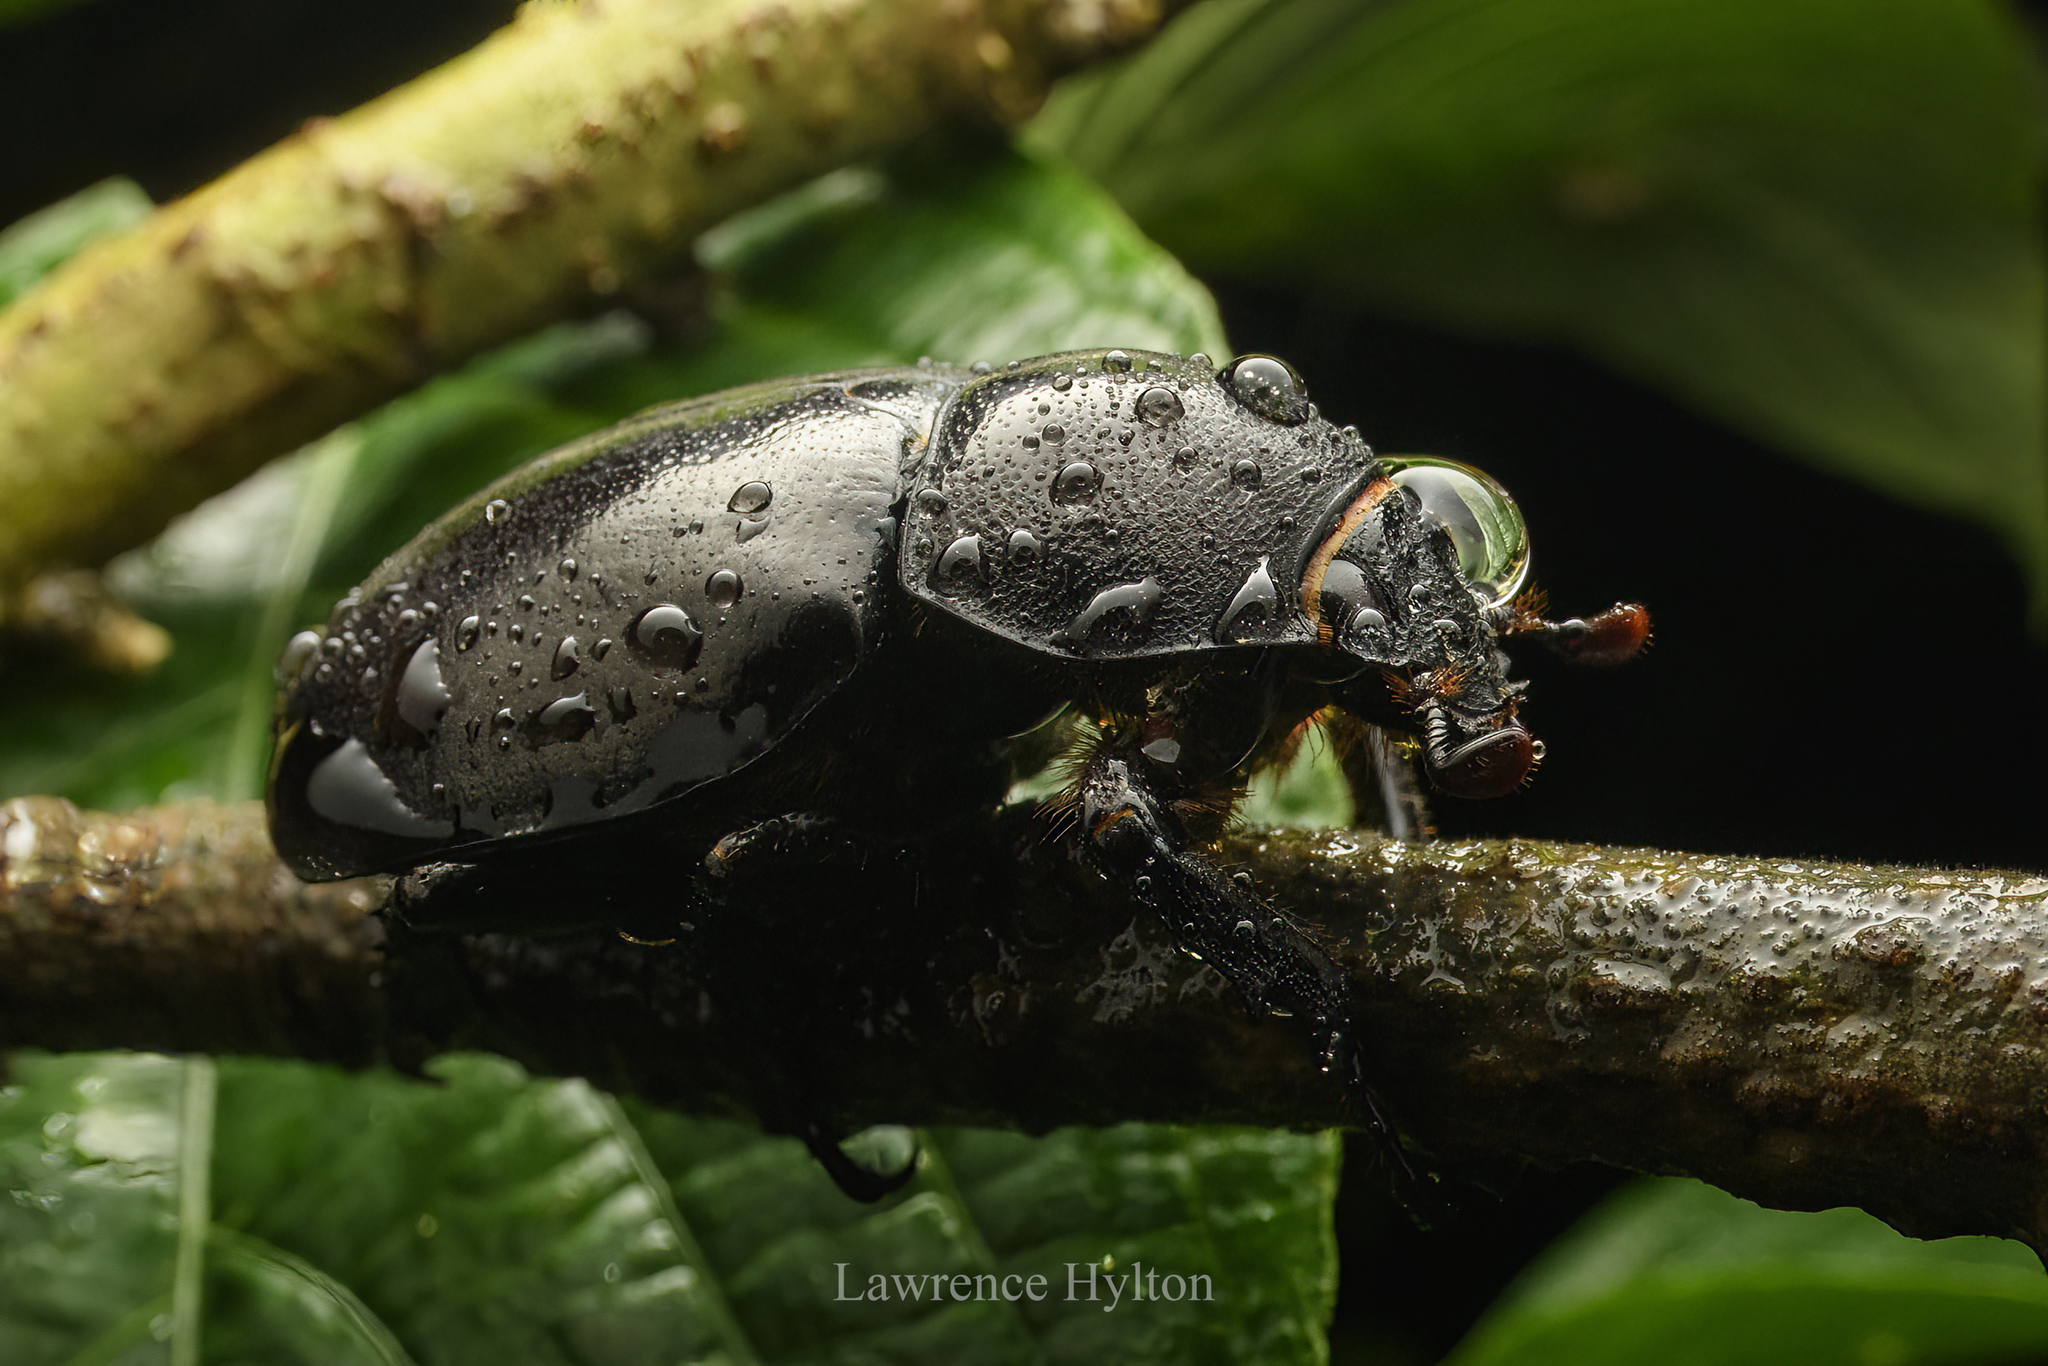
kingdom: Animalia
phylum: Arthropoda
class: Insecta
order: Coleoptera
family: Scarabaeidae
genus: Xylotrupes
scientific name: Xylotrupes socrates
